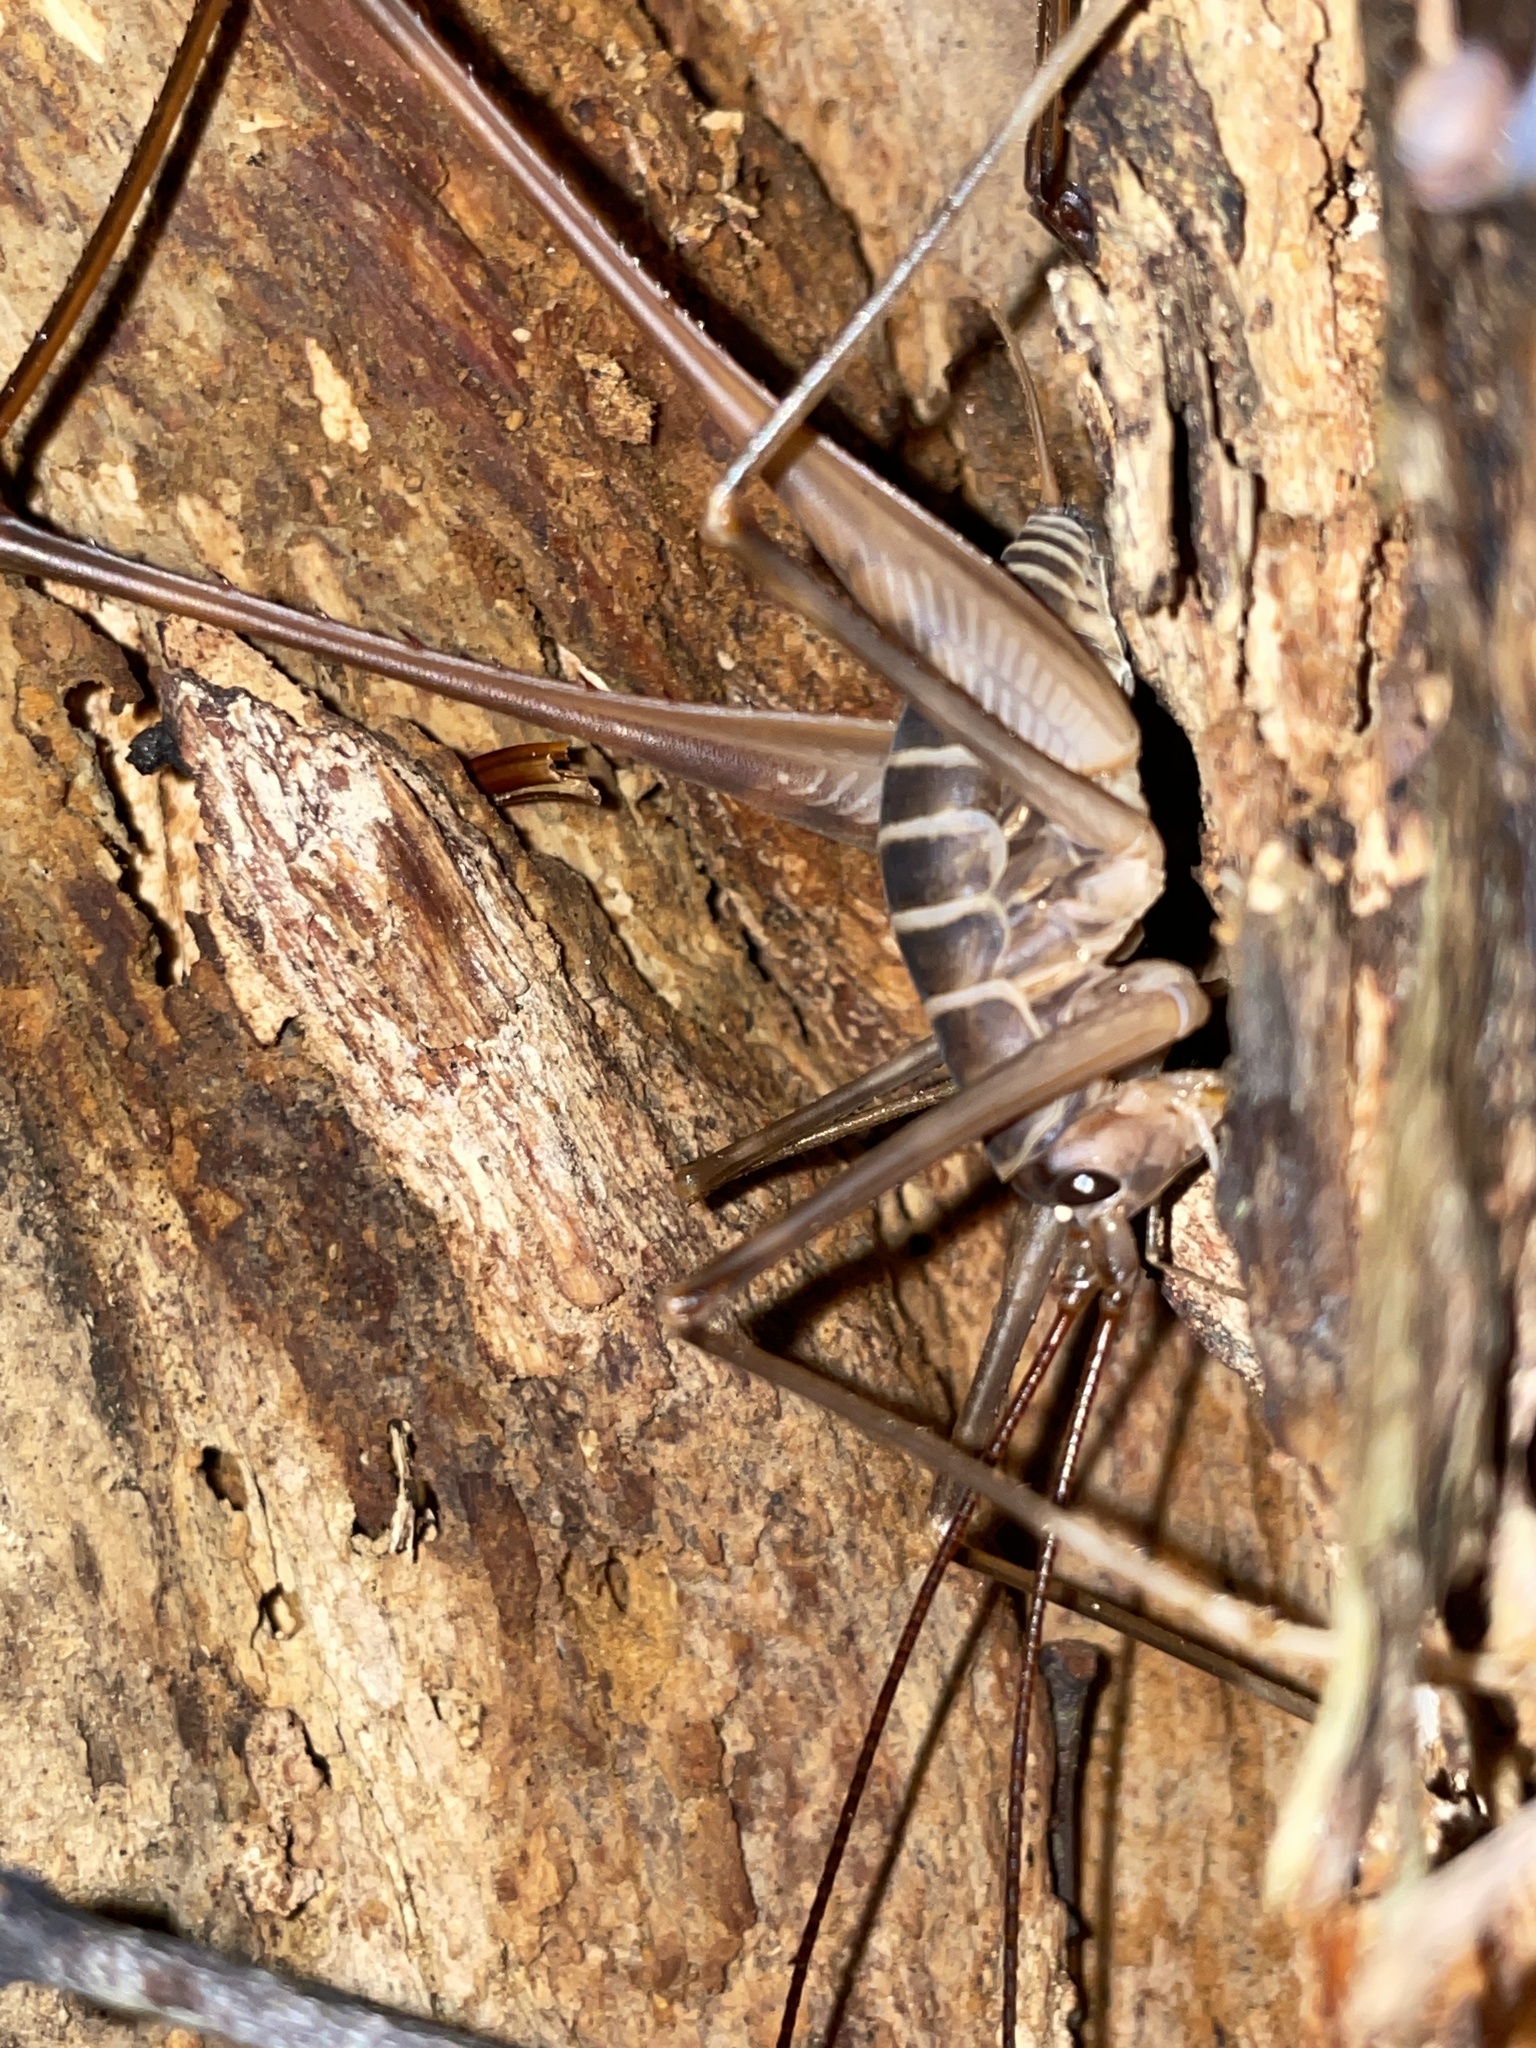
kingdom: Animalia
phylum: Arthropoda
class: Insecta
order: Orthoptera
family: Rhaphidophoridae
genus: Pachyrhamma
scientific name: Pachyrhamma acanthocera
